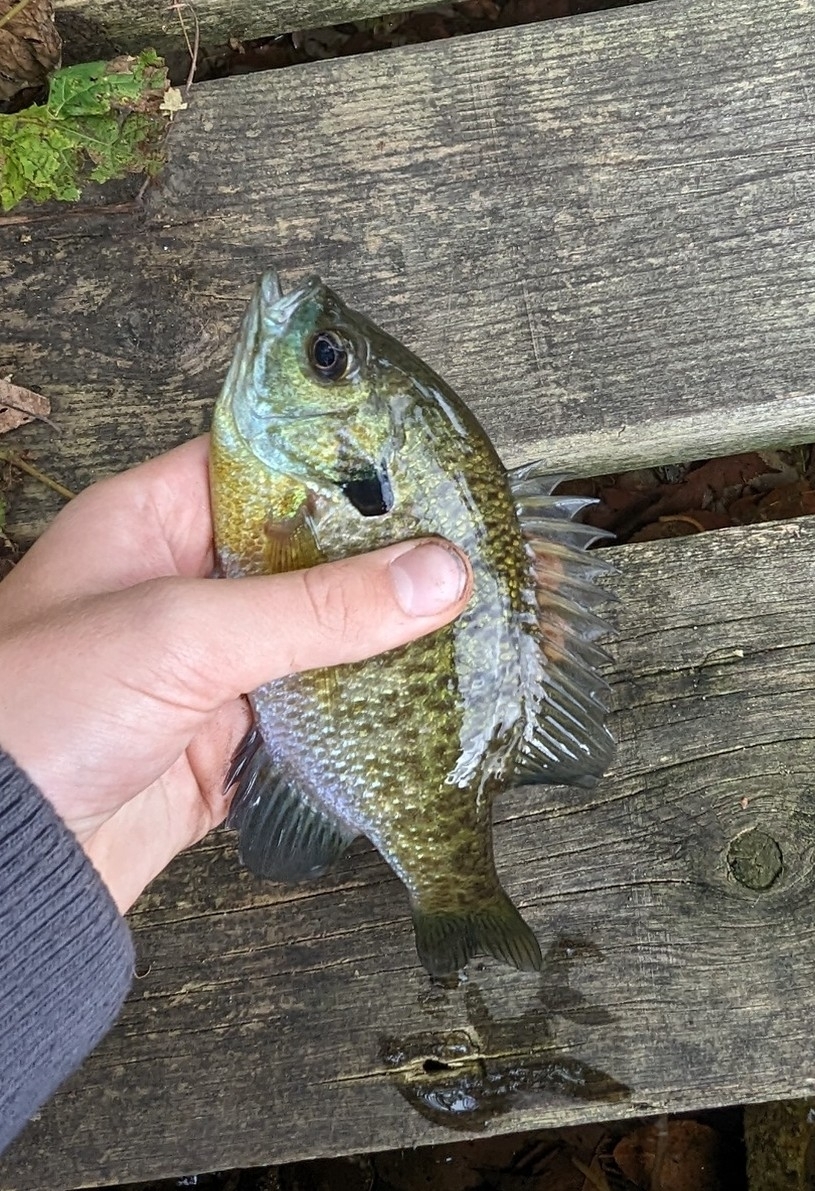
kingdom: Animalia
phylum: Chordata
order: Perciformes
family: Centrarchidae
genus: Lepomis
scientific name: Lepomis macrochirus
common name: Bluegill
